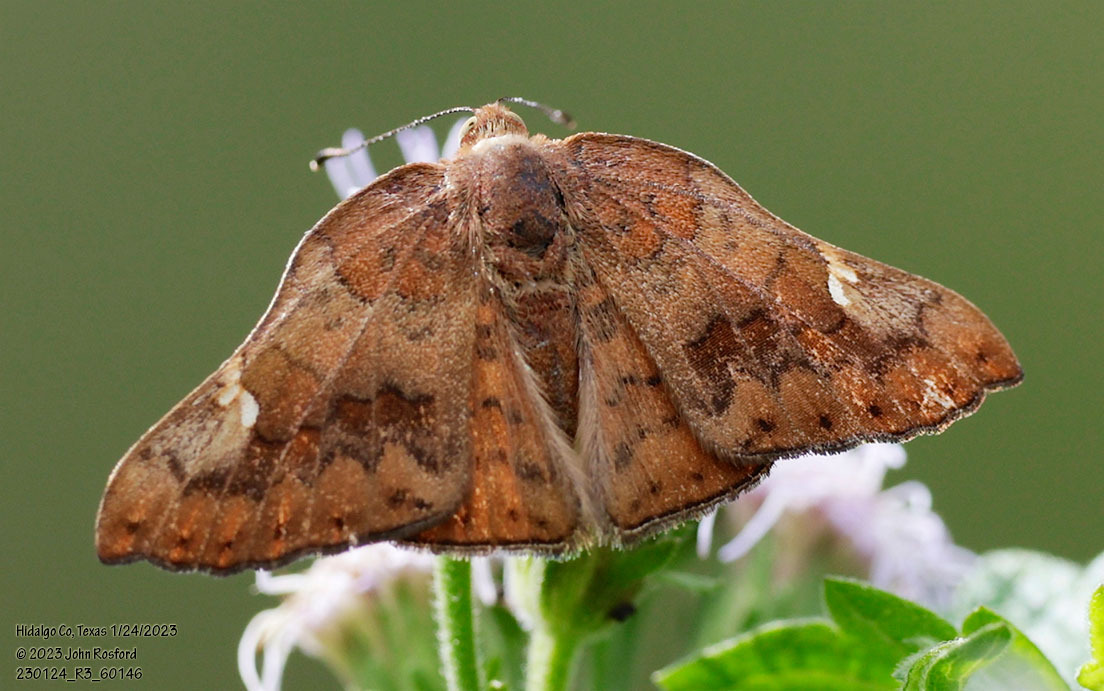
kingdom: Animalia
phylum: Arthropoda
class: Insecta
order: Lepidoptera
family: Riodinidae
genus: Curvie
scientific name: Curvie emesia
